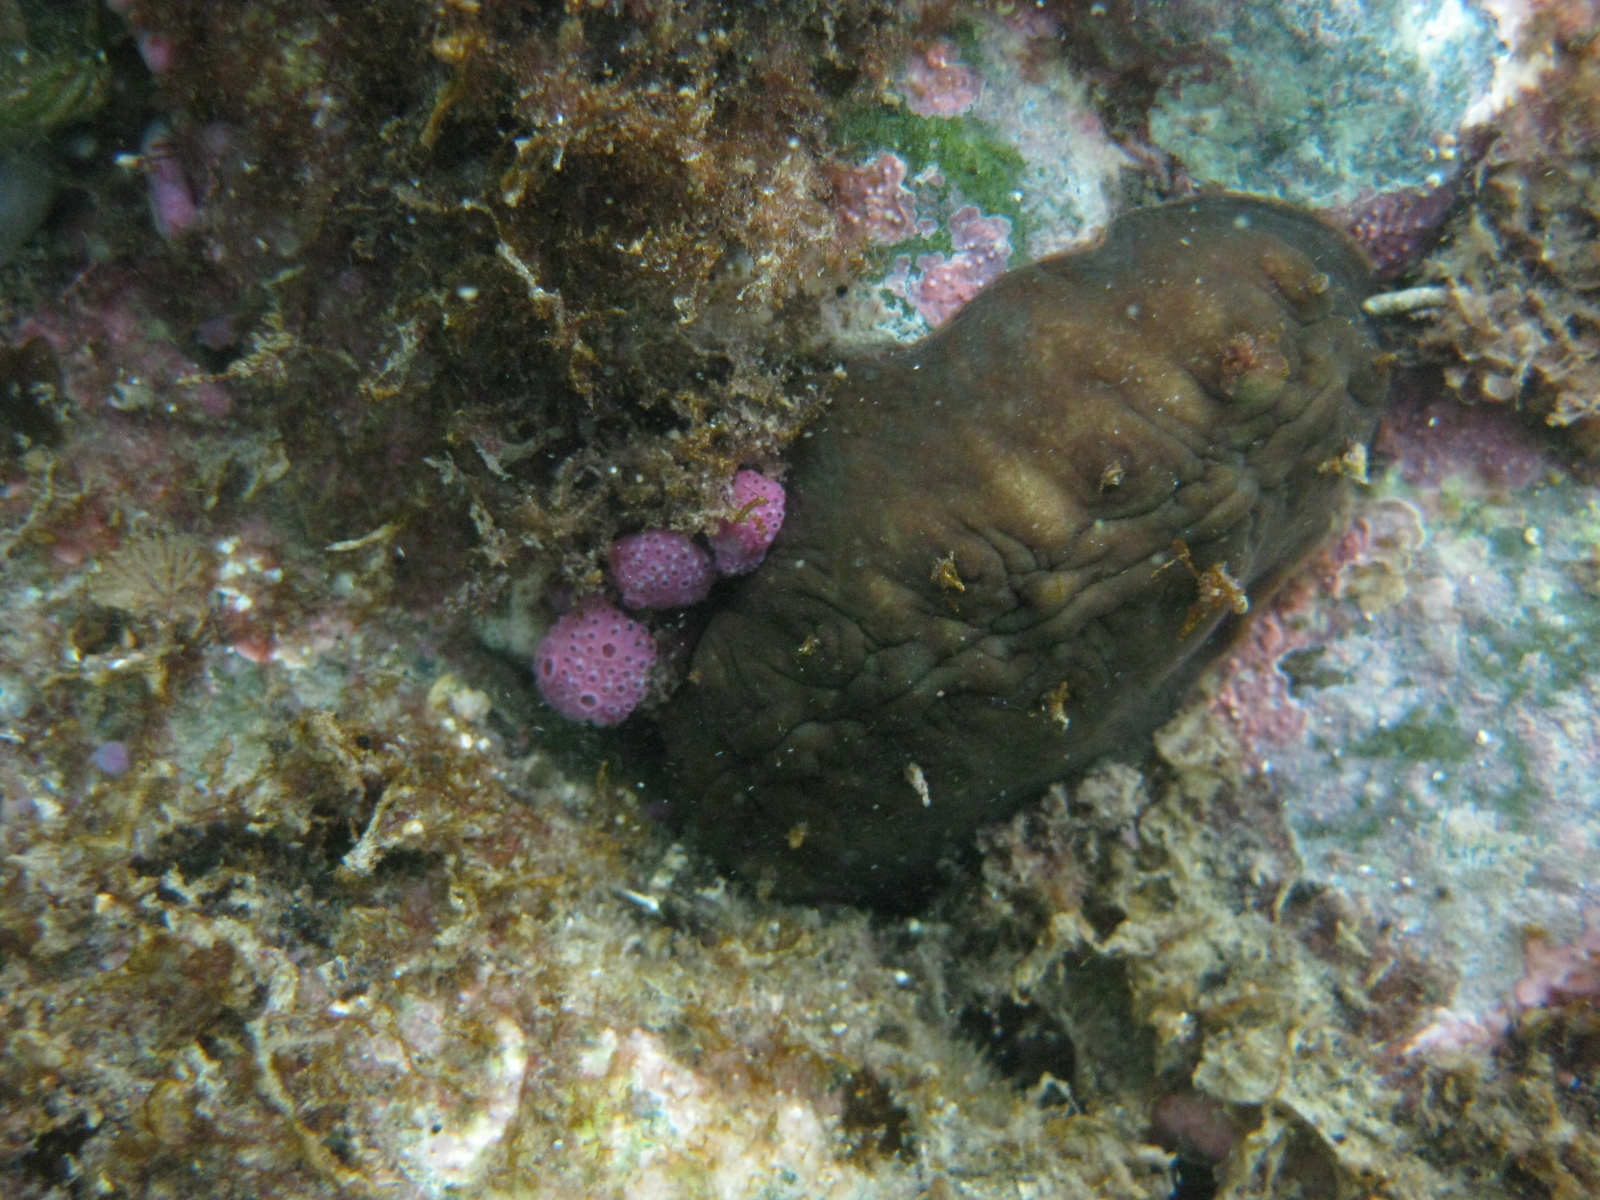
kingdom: Animalia
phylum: Mollusca
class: Polyplacophora
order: Chitonida
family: Acanthochitonidae
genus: Cryptoconchus
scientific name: Cryptoconchus porosus
